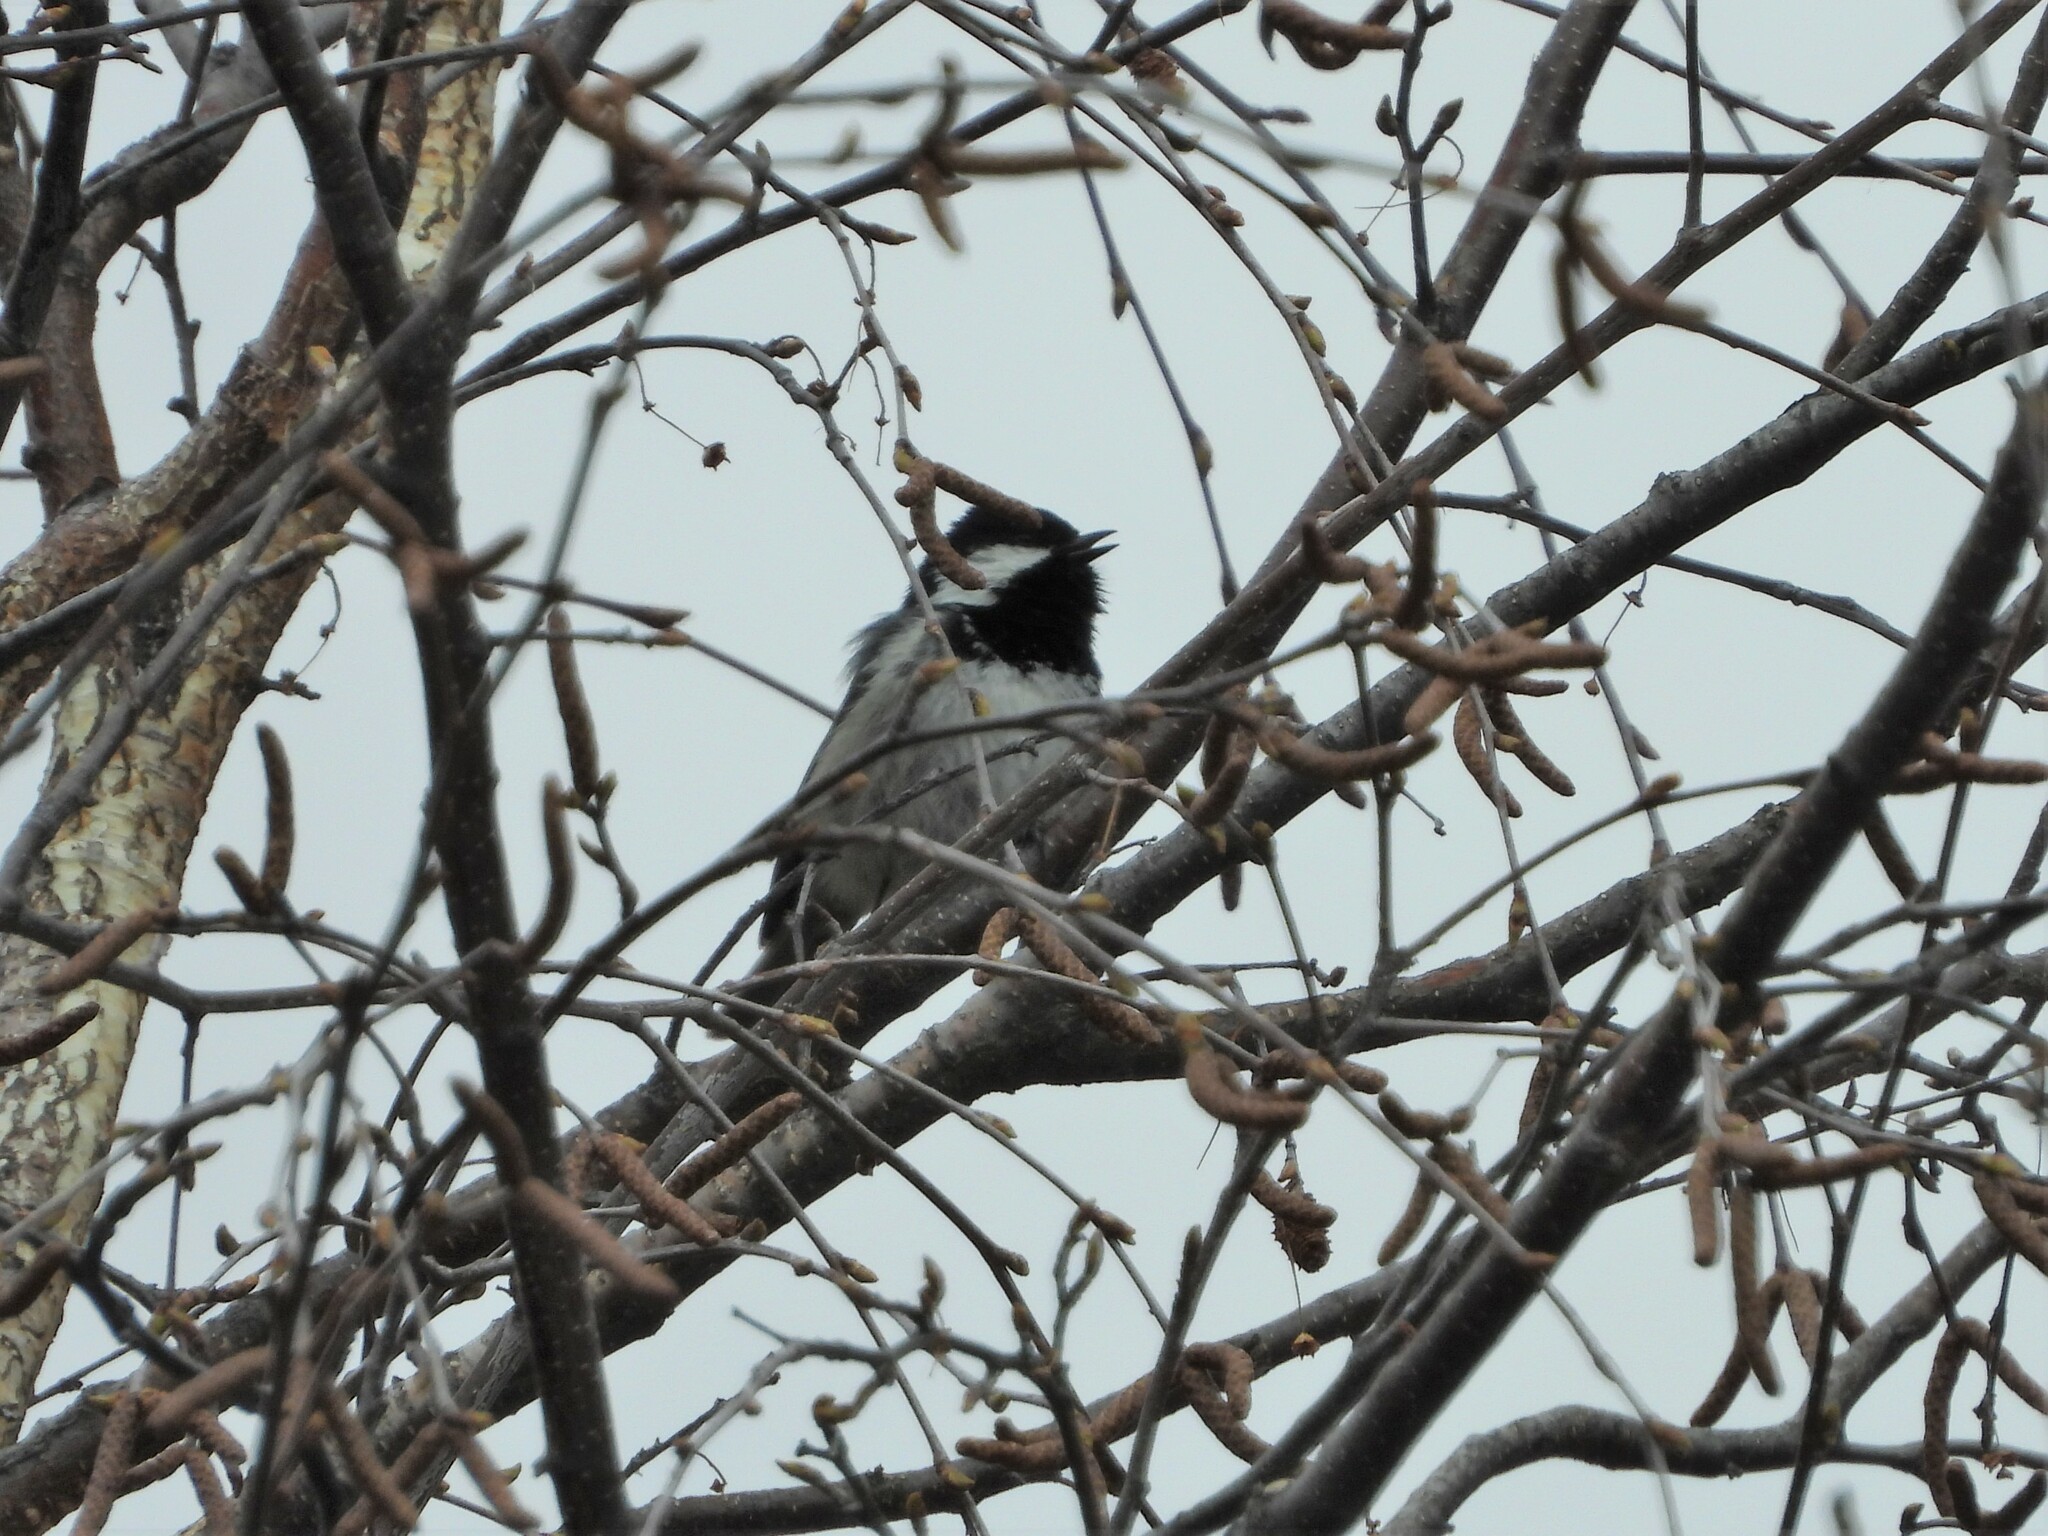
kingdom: Animalia
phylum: Chordata
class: Aves
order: Passeriformes
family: Paridae
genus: Periparus
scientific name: Periparus ater
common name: Coal tit
